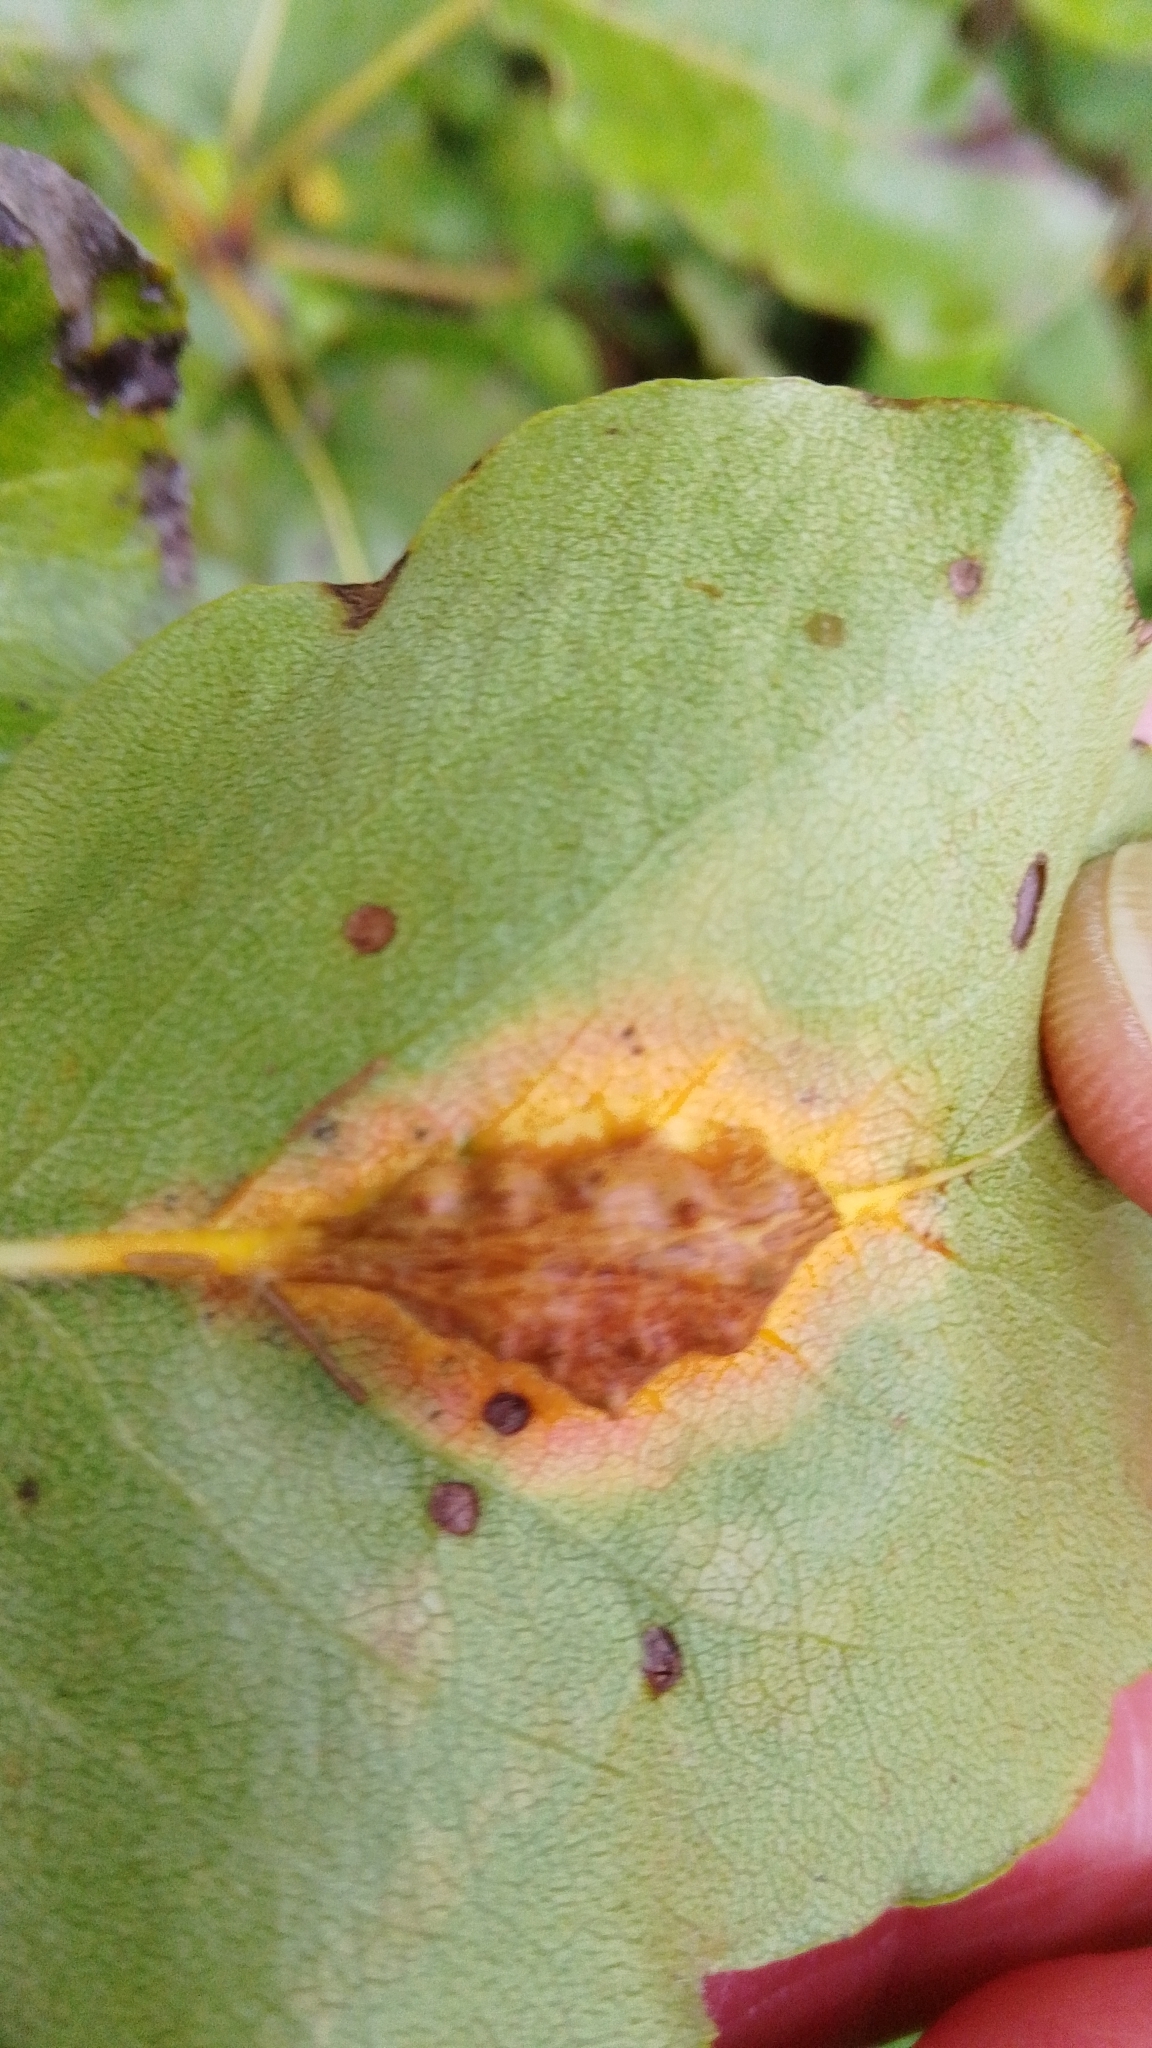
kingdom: Fungi
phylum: Basidiomycota
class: Pucciniomycetes
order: Pucciniales
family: Gymnosporangiaceae
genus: Gymnosporangium
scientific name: Gymnosporangium sabinae
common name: Pear trellis rust fungus
